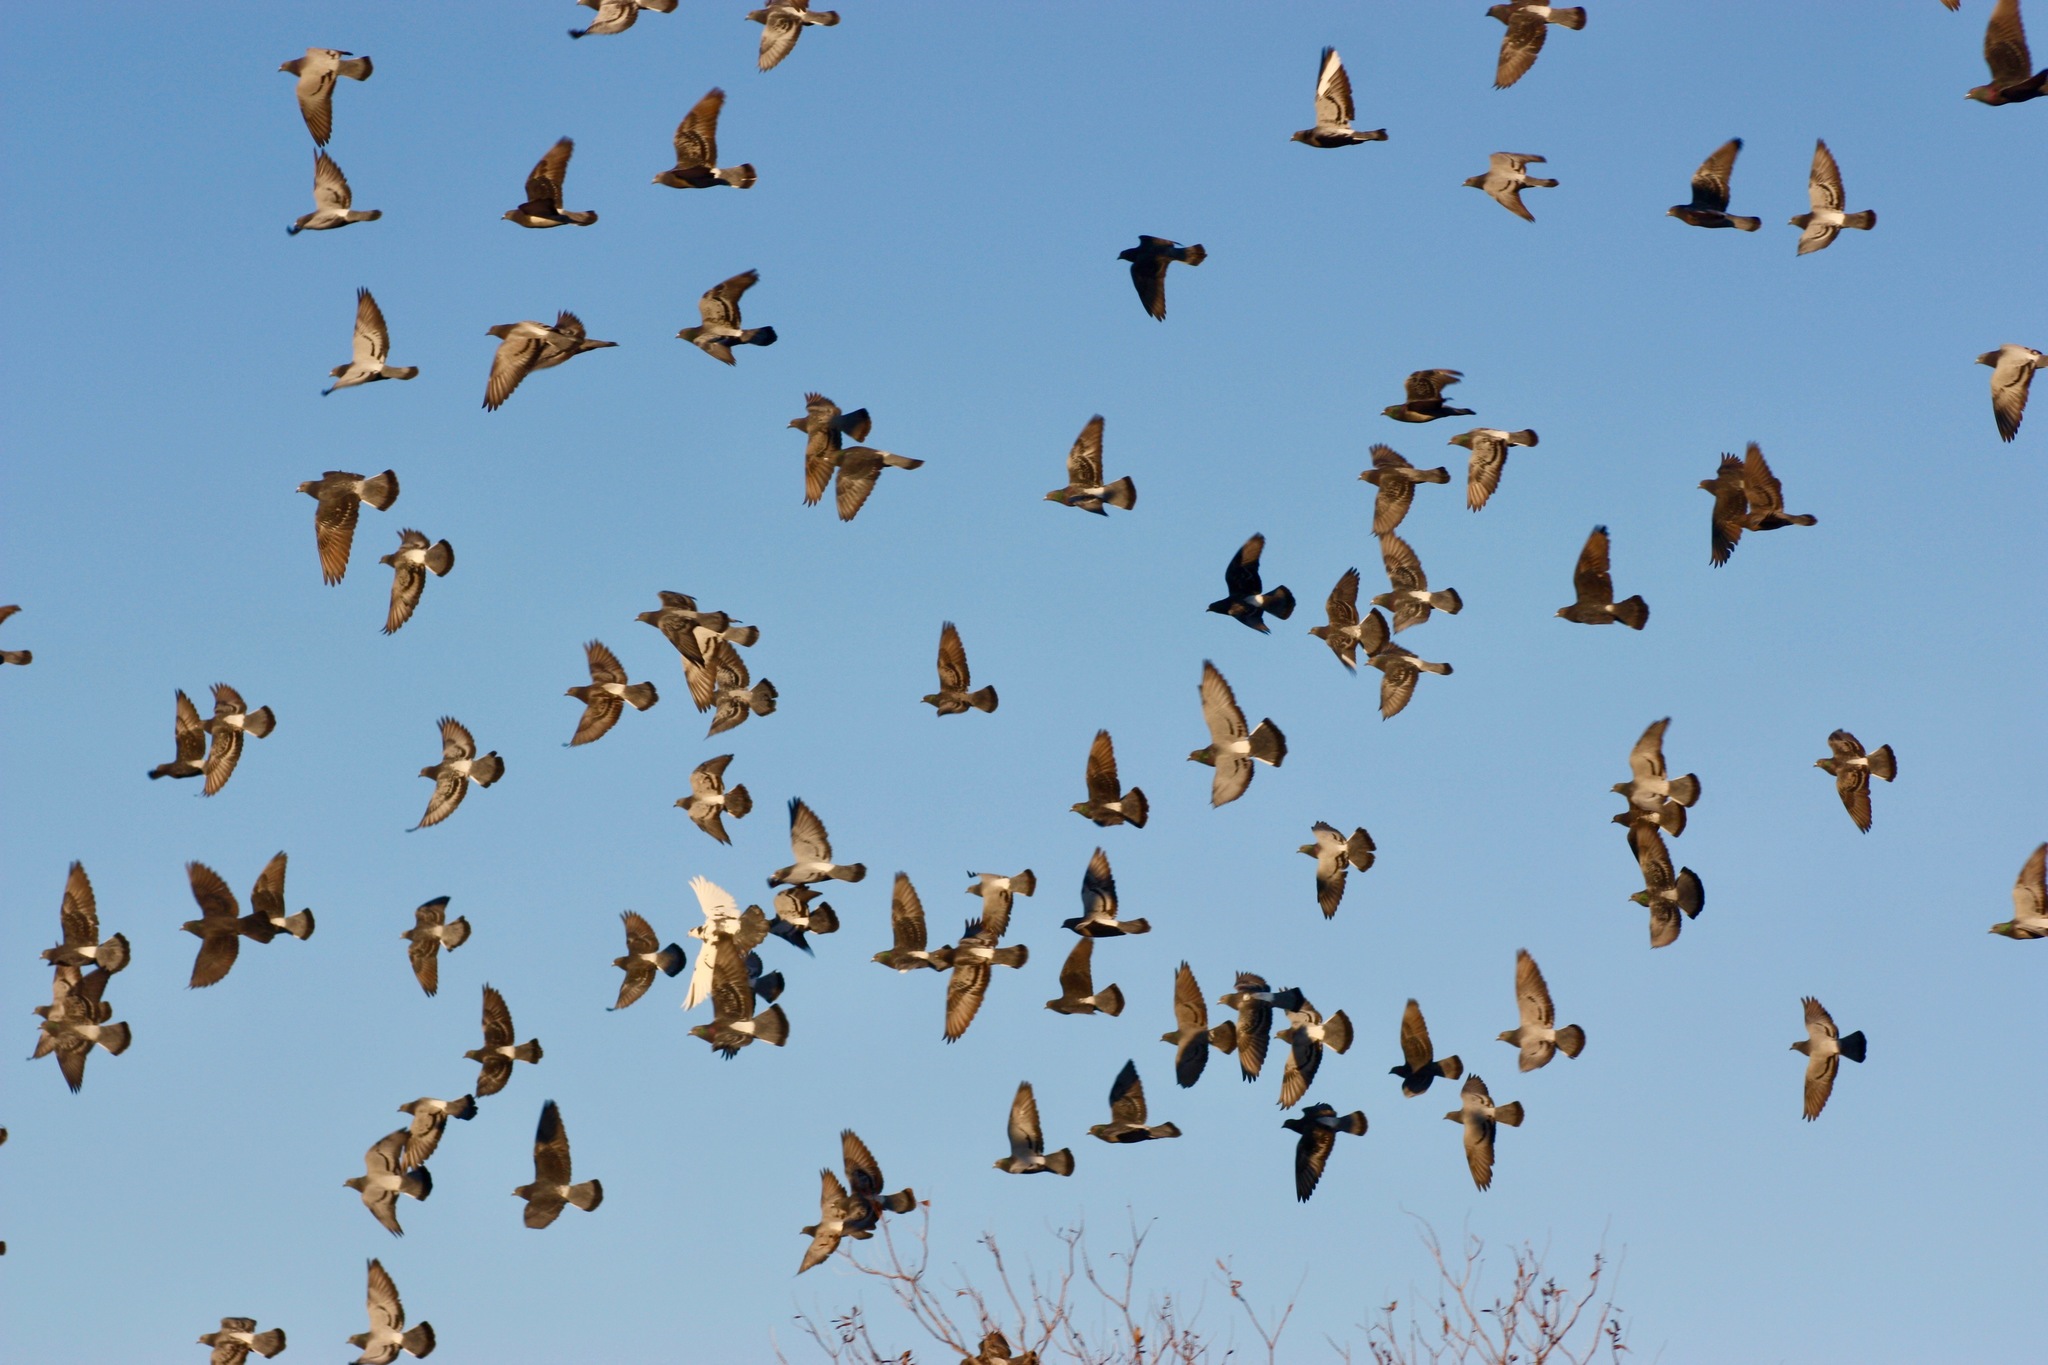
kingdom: Animalia
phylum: Chordata
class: Aves
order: Columbiformes
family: Columbidae
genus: Columba
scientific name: Columba livia
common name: Rock pigeon
